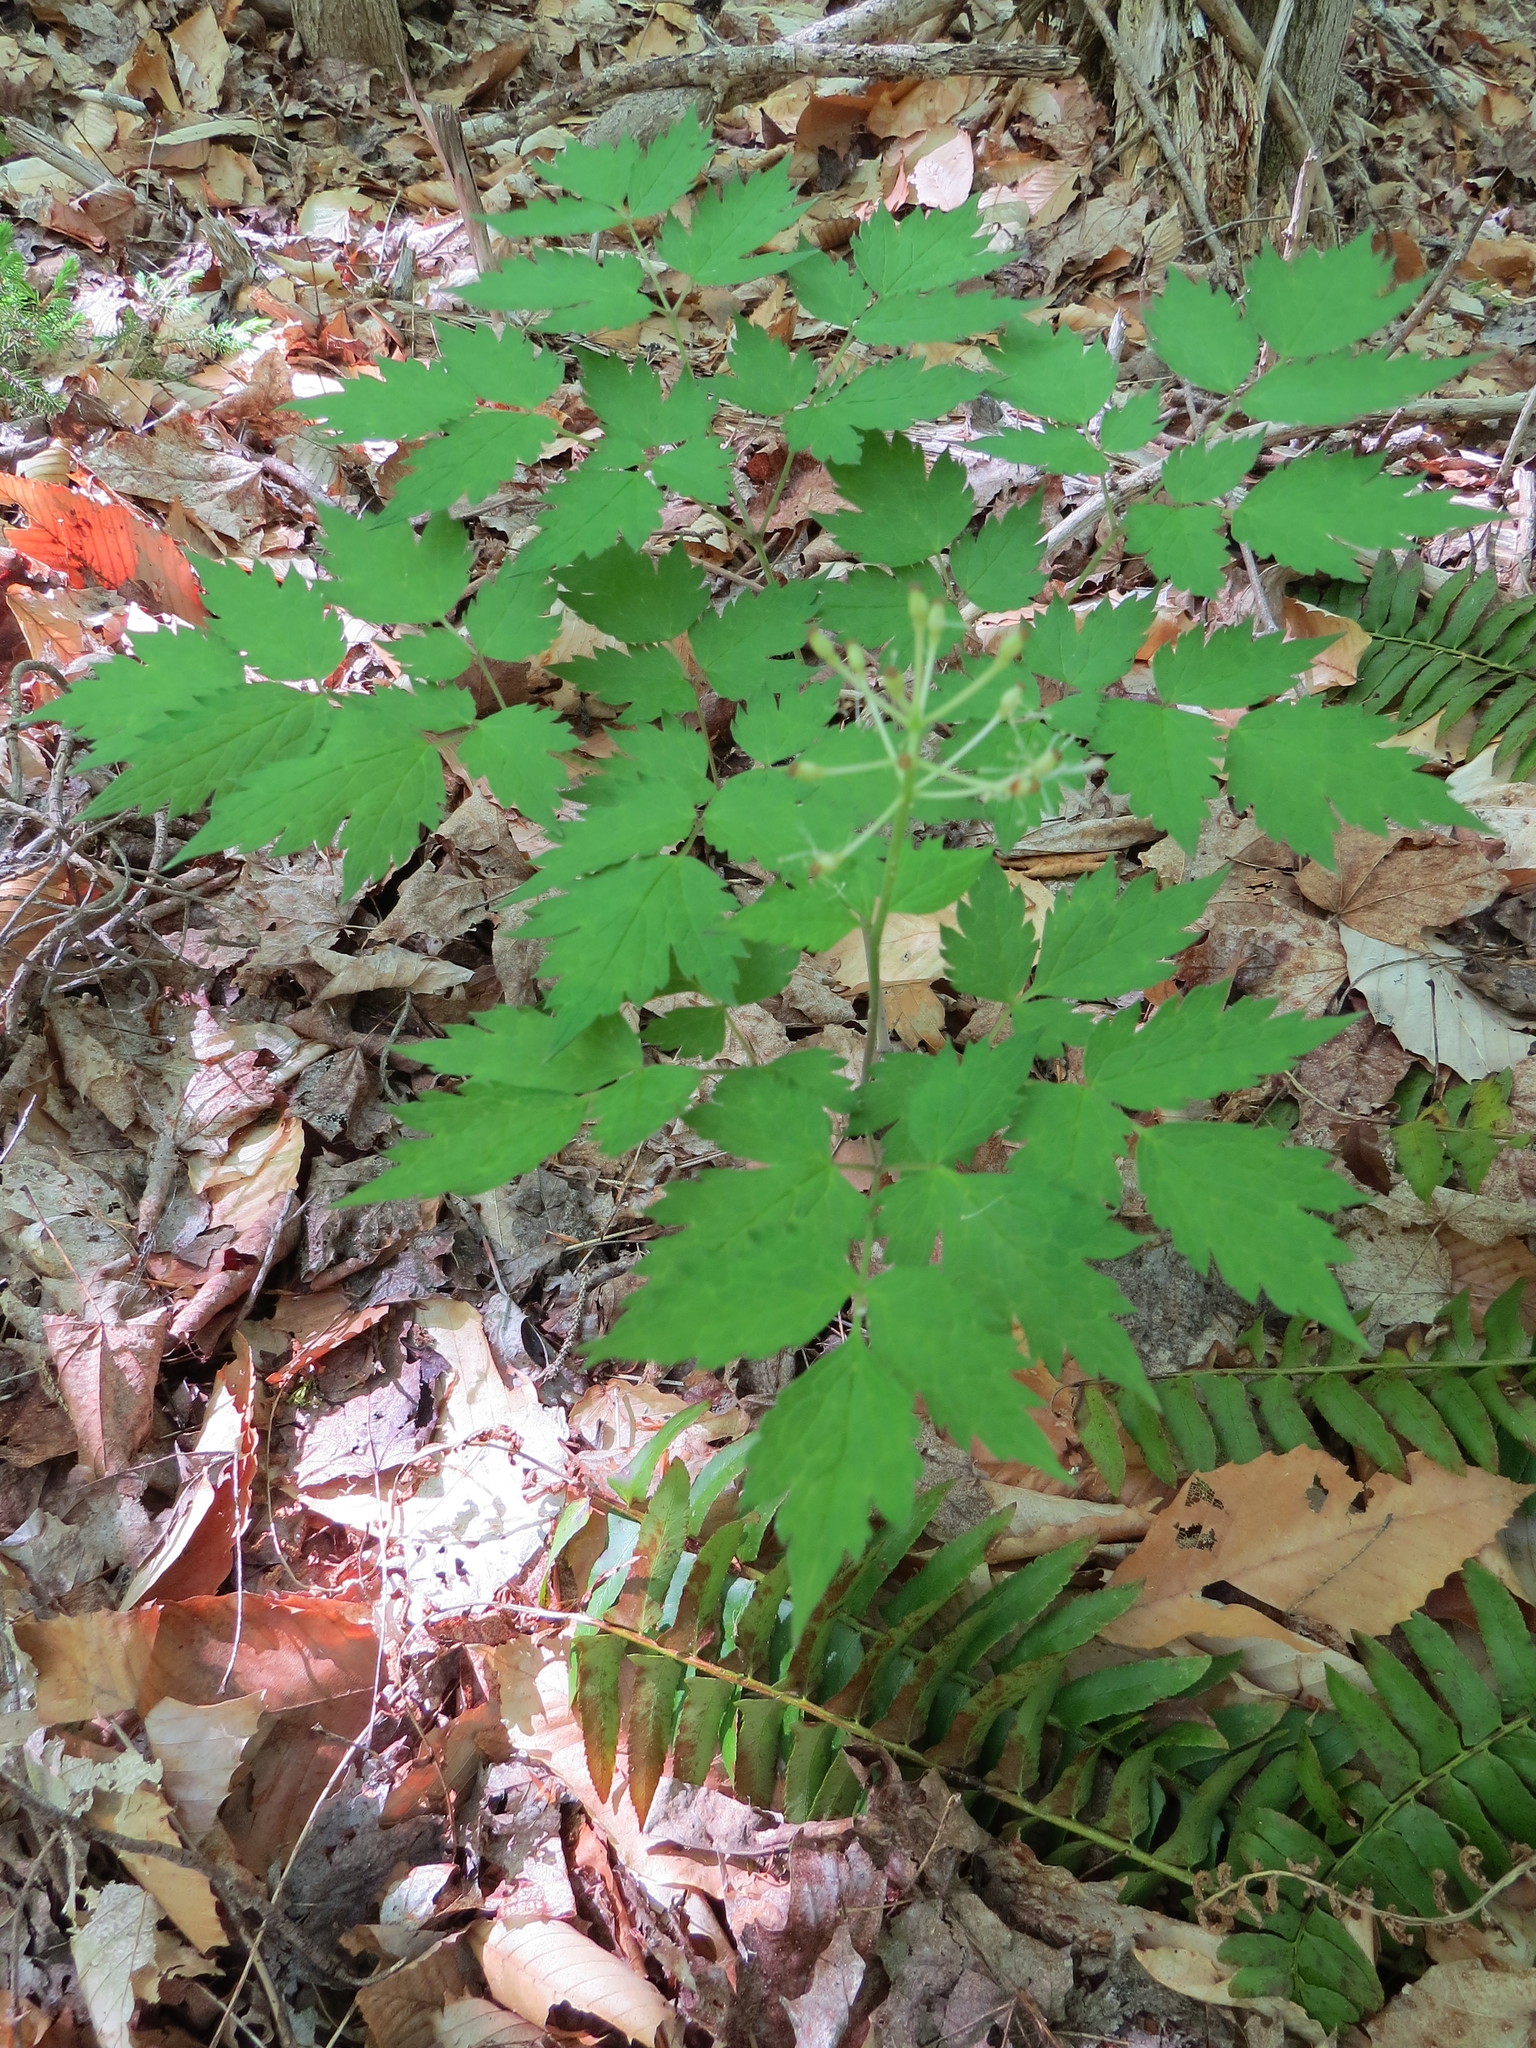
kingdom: Plantae
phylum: Tracheophyta
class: Magnoliopsida
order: Ranunculales
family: Ranunculaceae
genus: Actaea
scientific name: Actaea rubra
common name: Red baneberry
